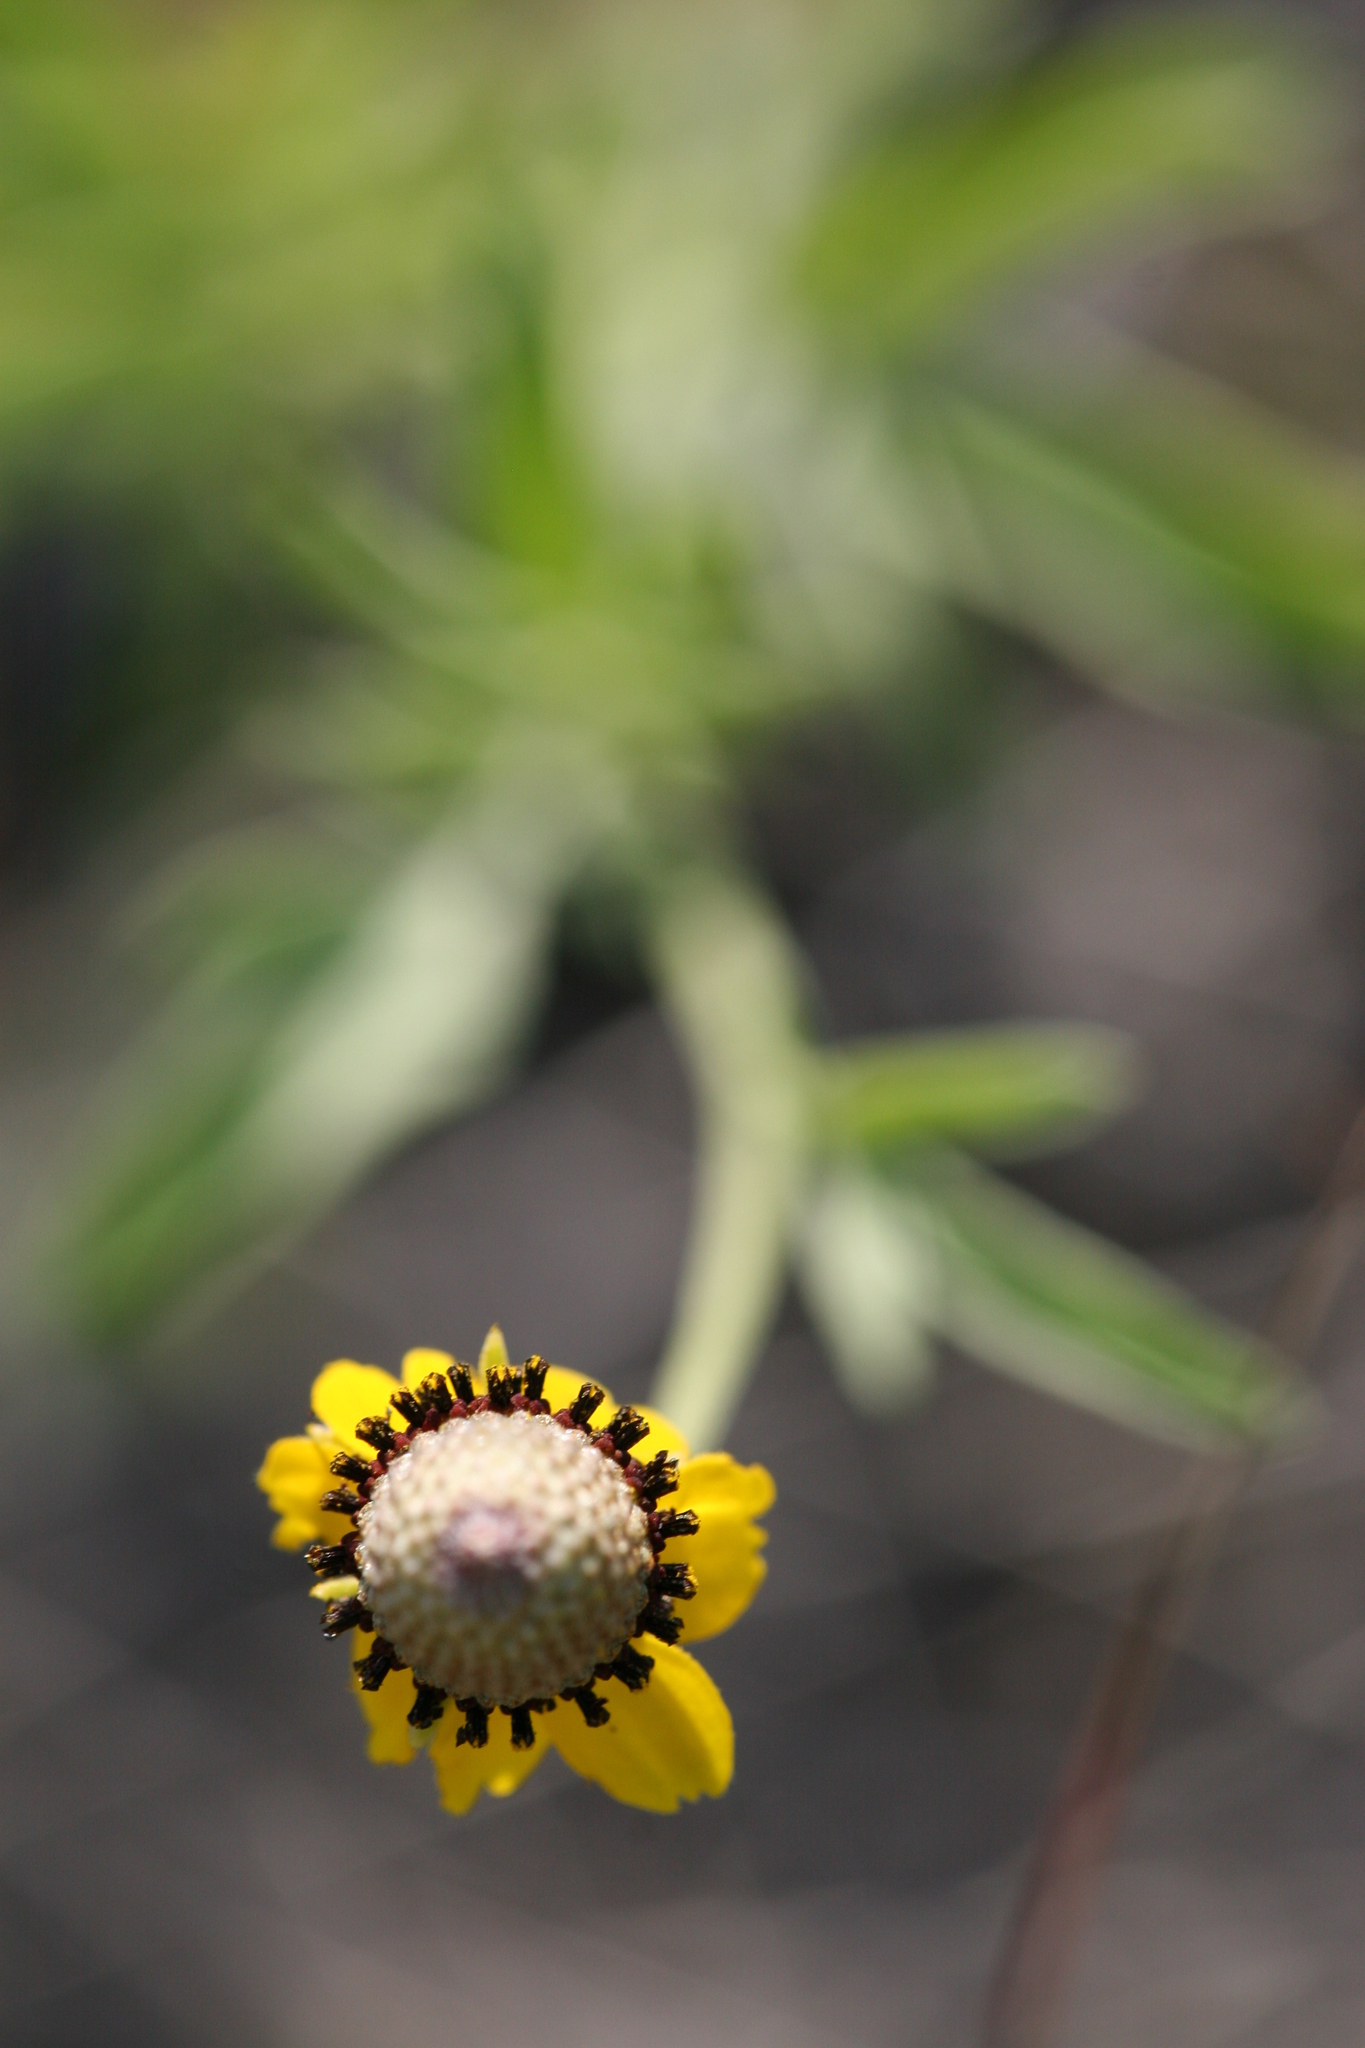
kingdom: Plantae
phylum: Tracheophyta
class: Magnoliopsida
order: Asterales
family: Asteraceae
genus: Ratibida
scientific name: Ratibida columnifera
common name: Prairie coneflower
